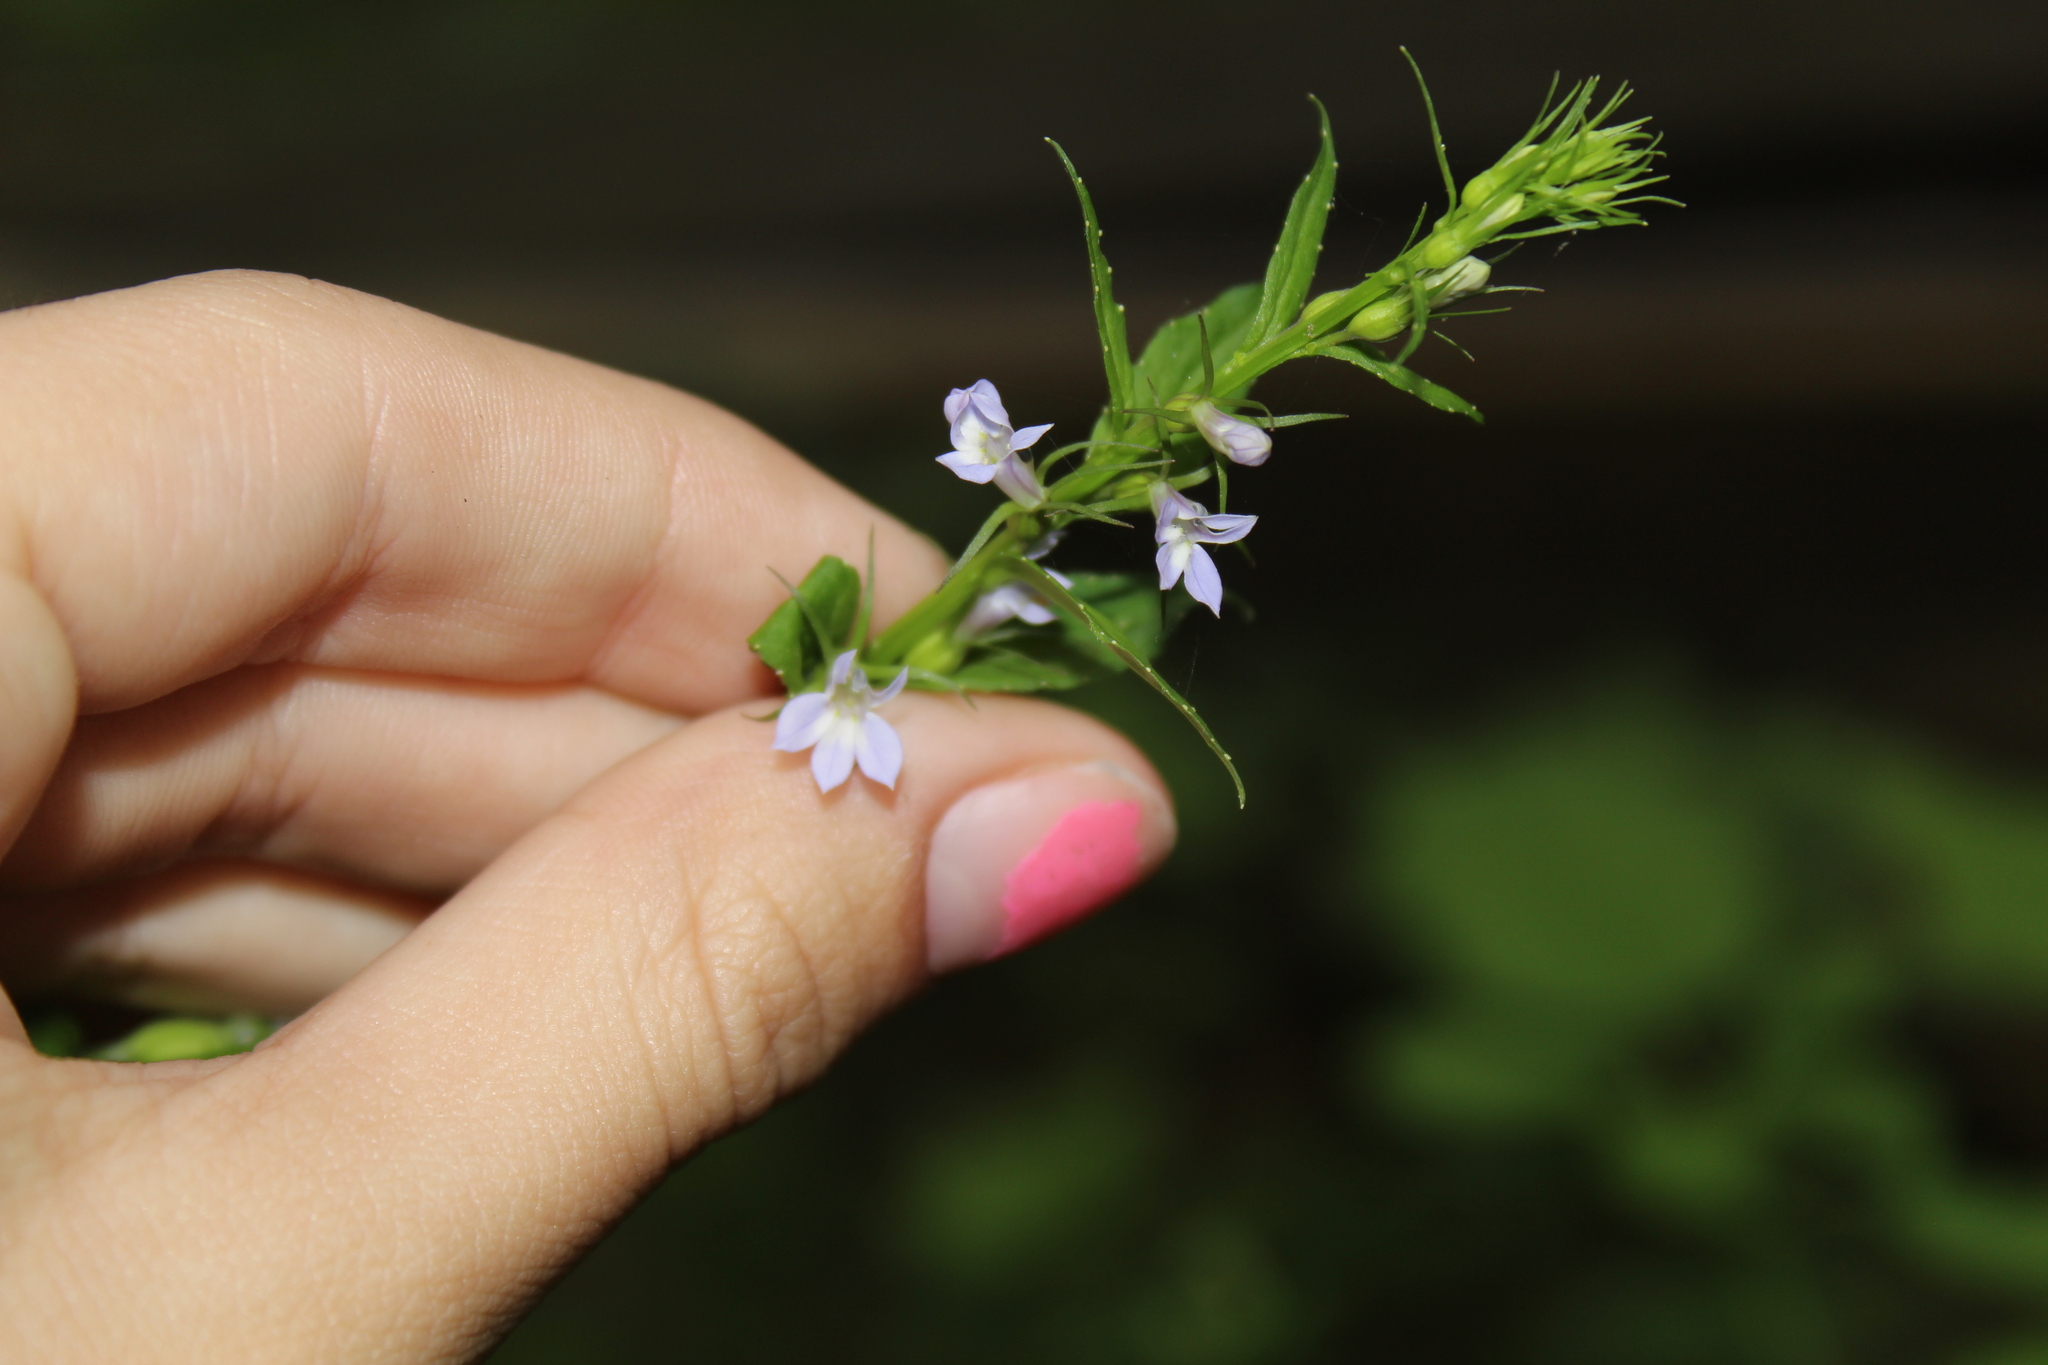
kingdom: Plantae
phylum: Tracheophyta
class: Magnoliopsida
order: Asterales
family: Campanulaceae
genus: Lobelia
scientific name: Lobelia inflata
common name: Indian tobacco
